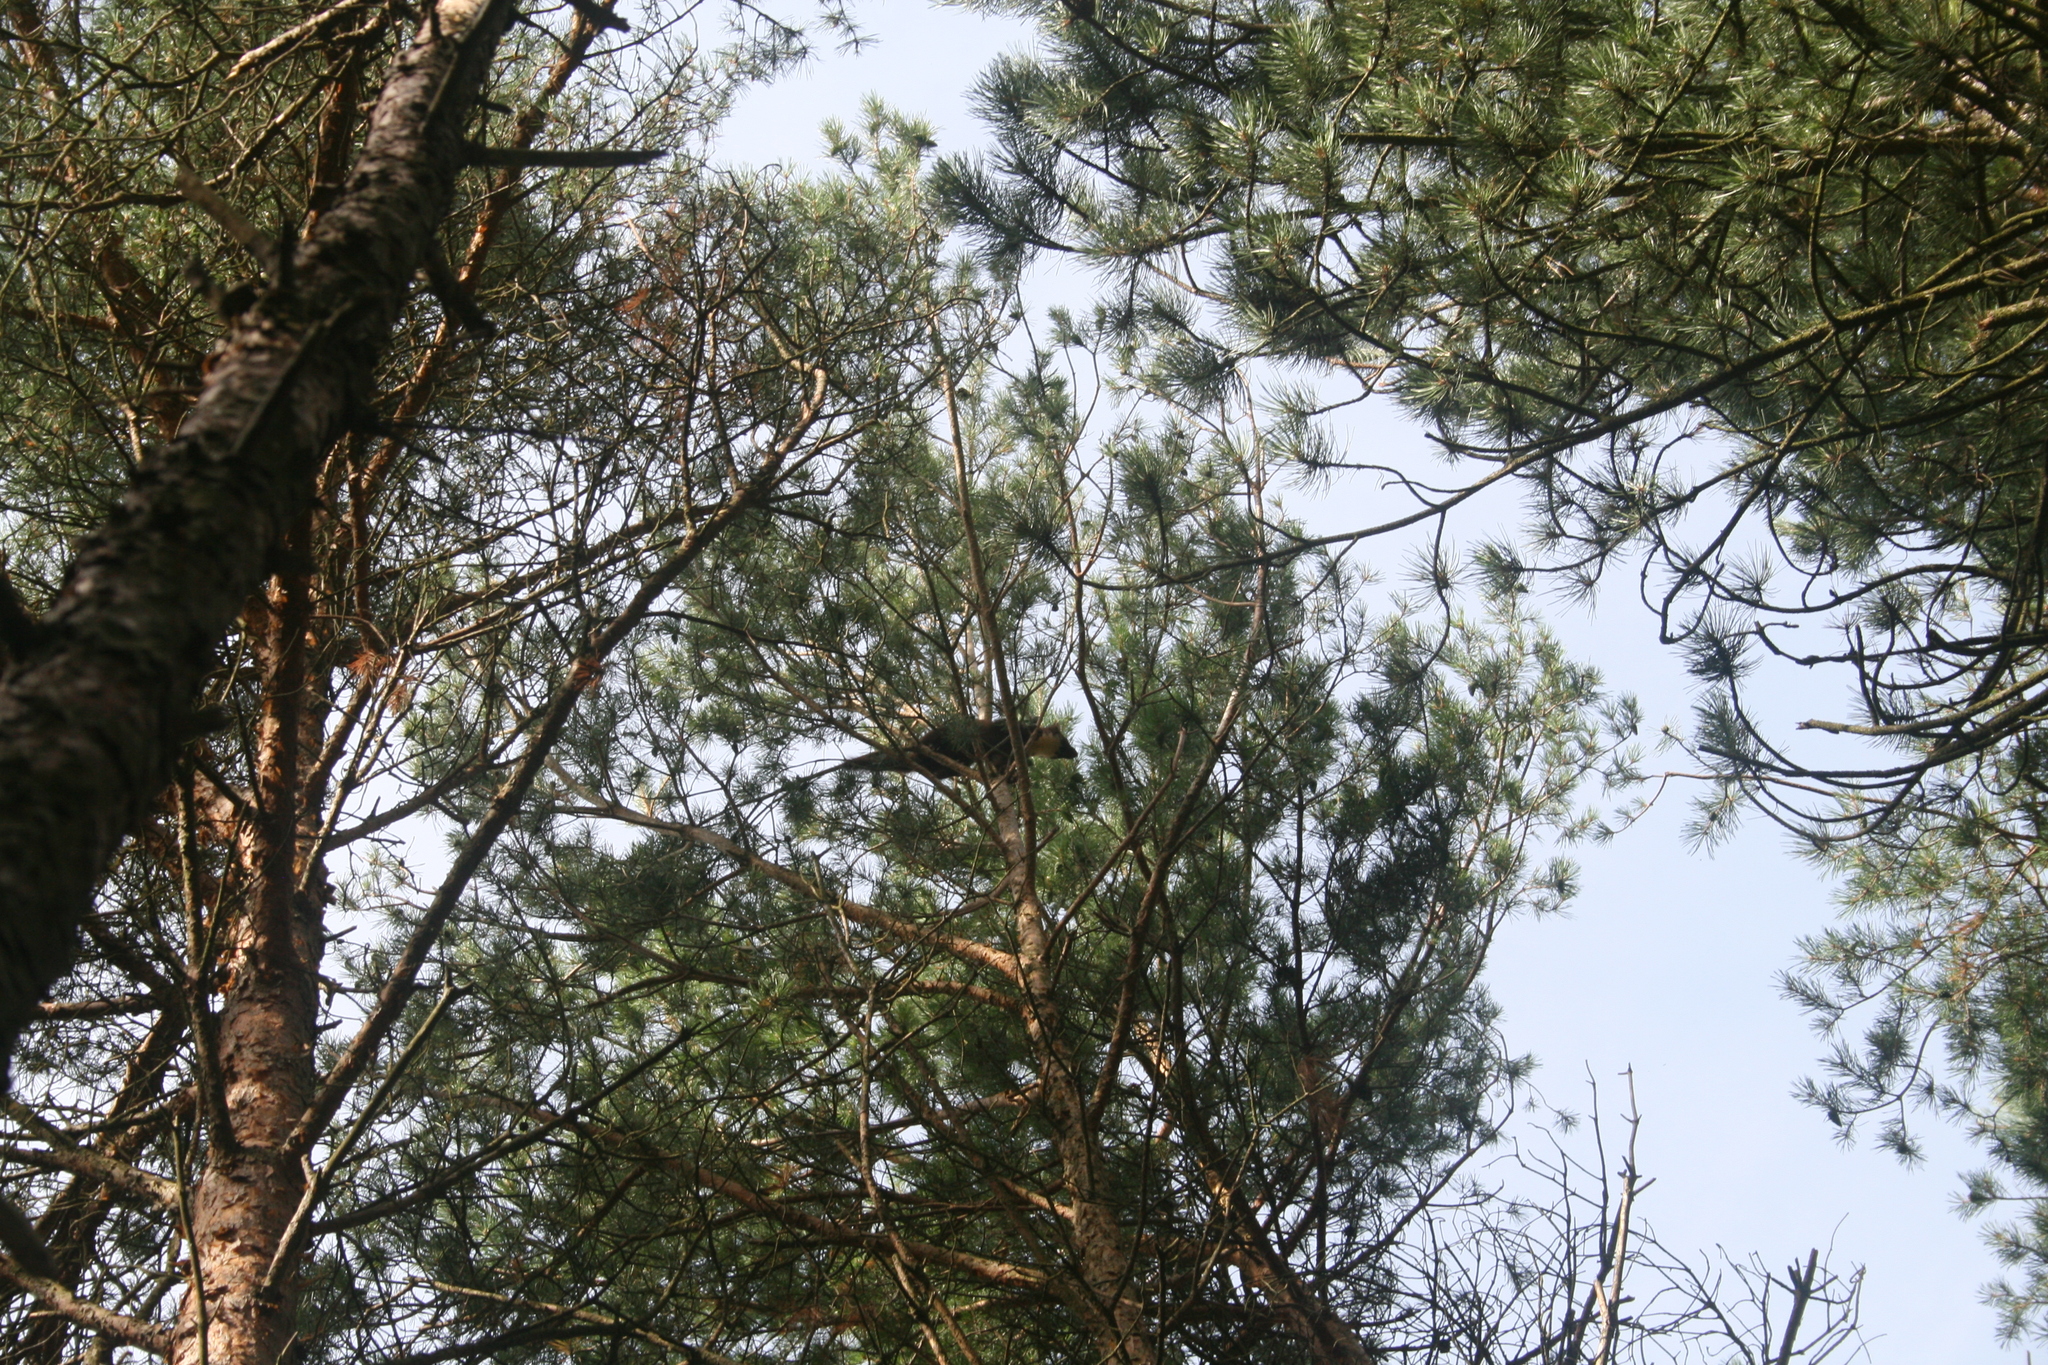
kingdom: Animalia
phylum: Chordata
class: Mammalia
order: Carnivora
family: Mustelidae
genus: Martes
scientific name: Martes martes
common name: European pine marten
